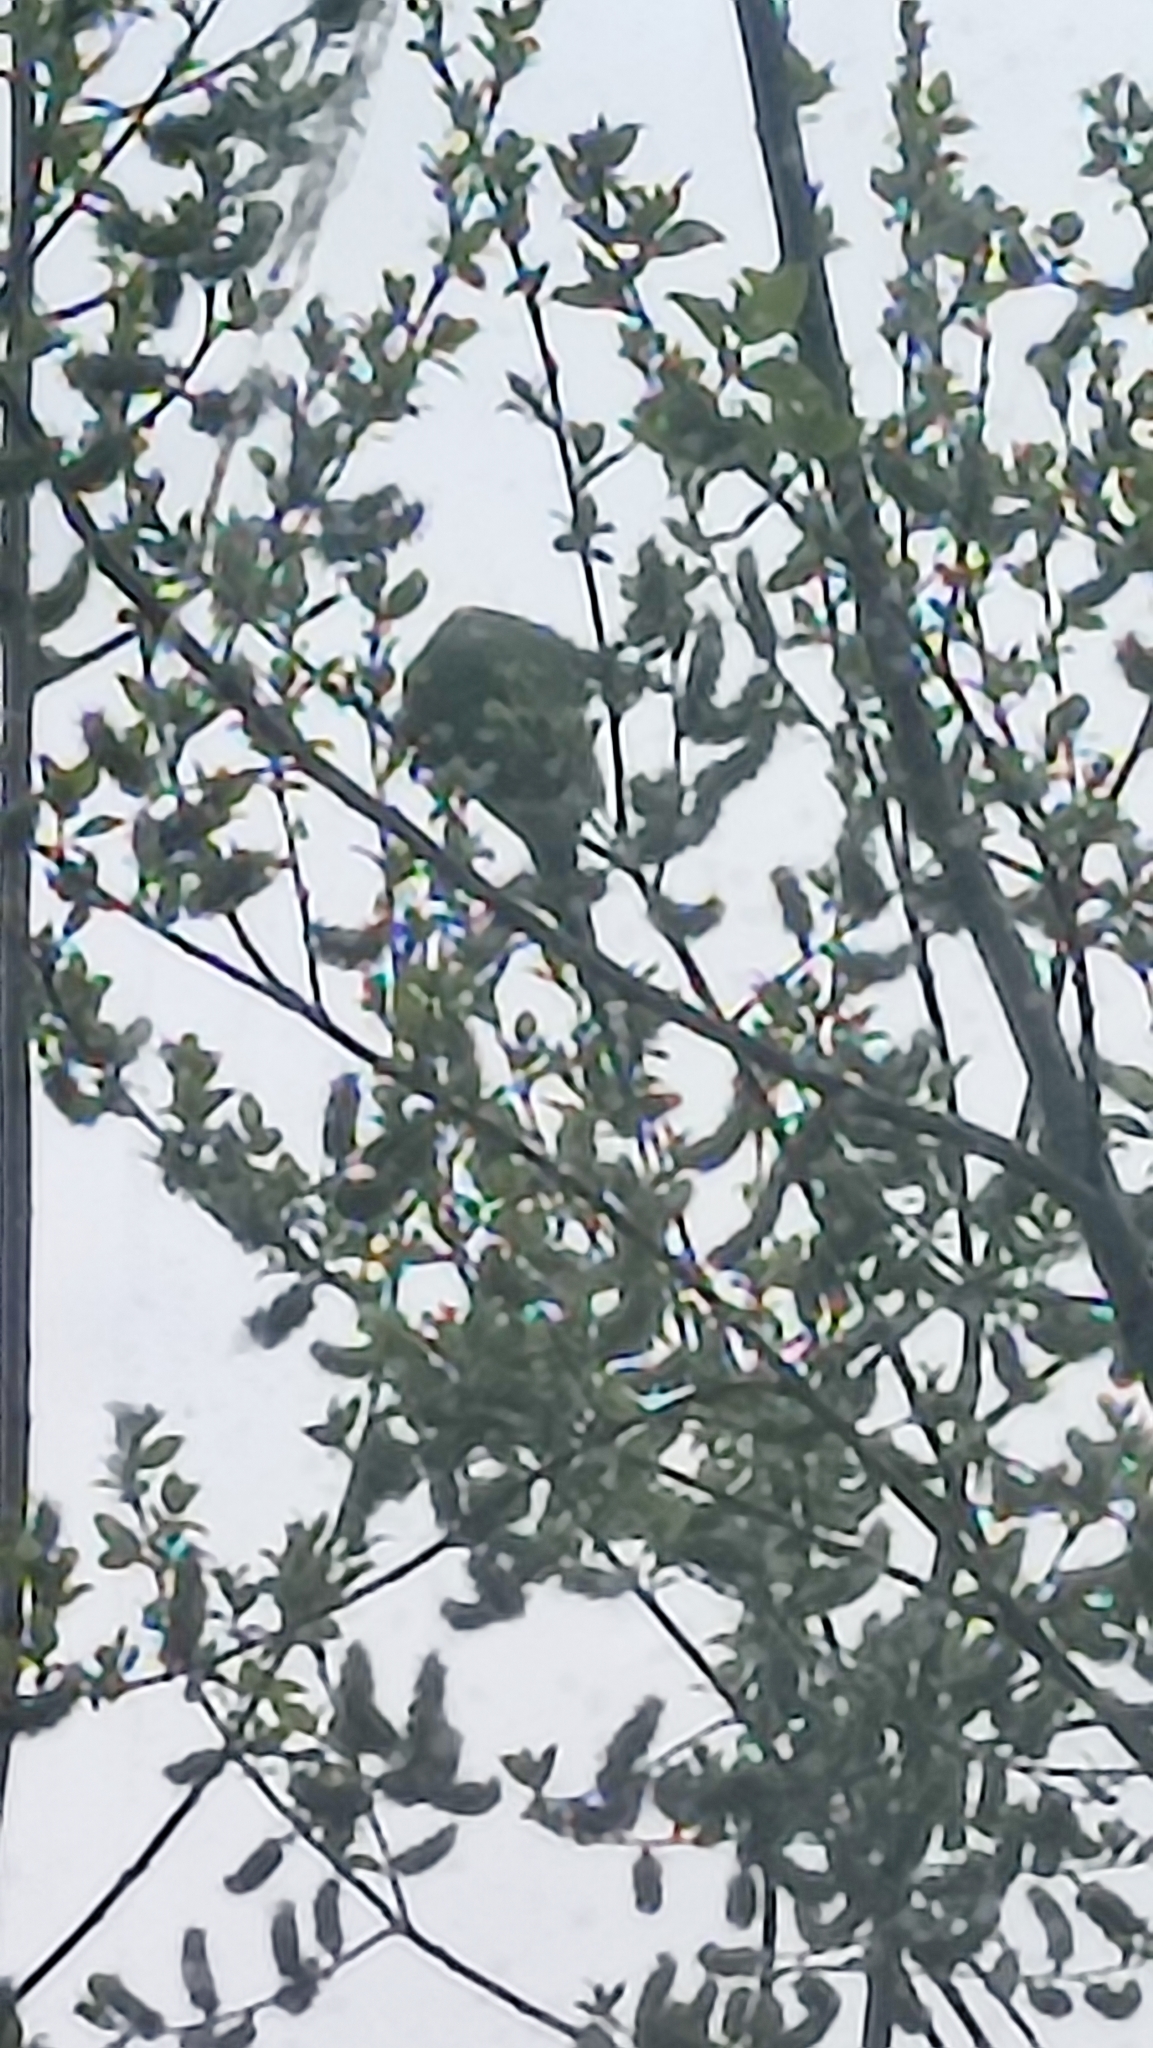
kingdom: Animalia
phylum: Chordata
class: Aves
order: Psittaciformes
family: Psittacidae
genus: Psittacula
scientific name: Psittacula krameri
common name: Rose-ringed parakeet
